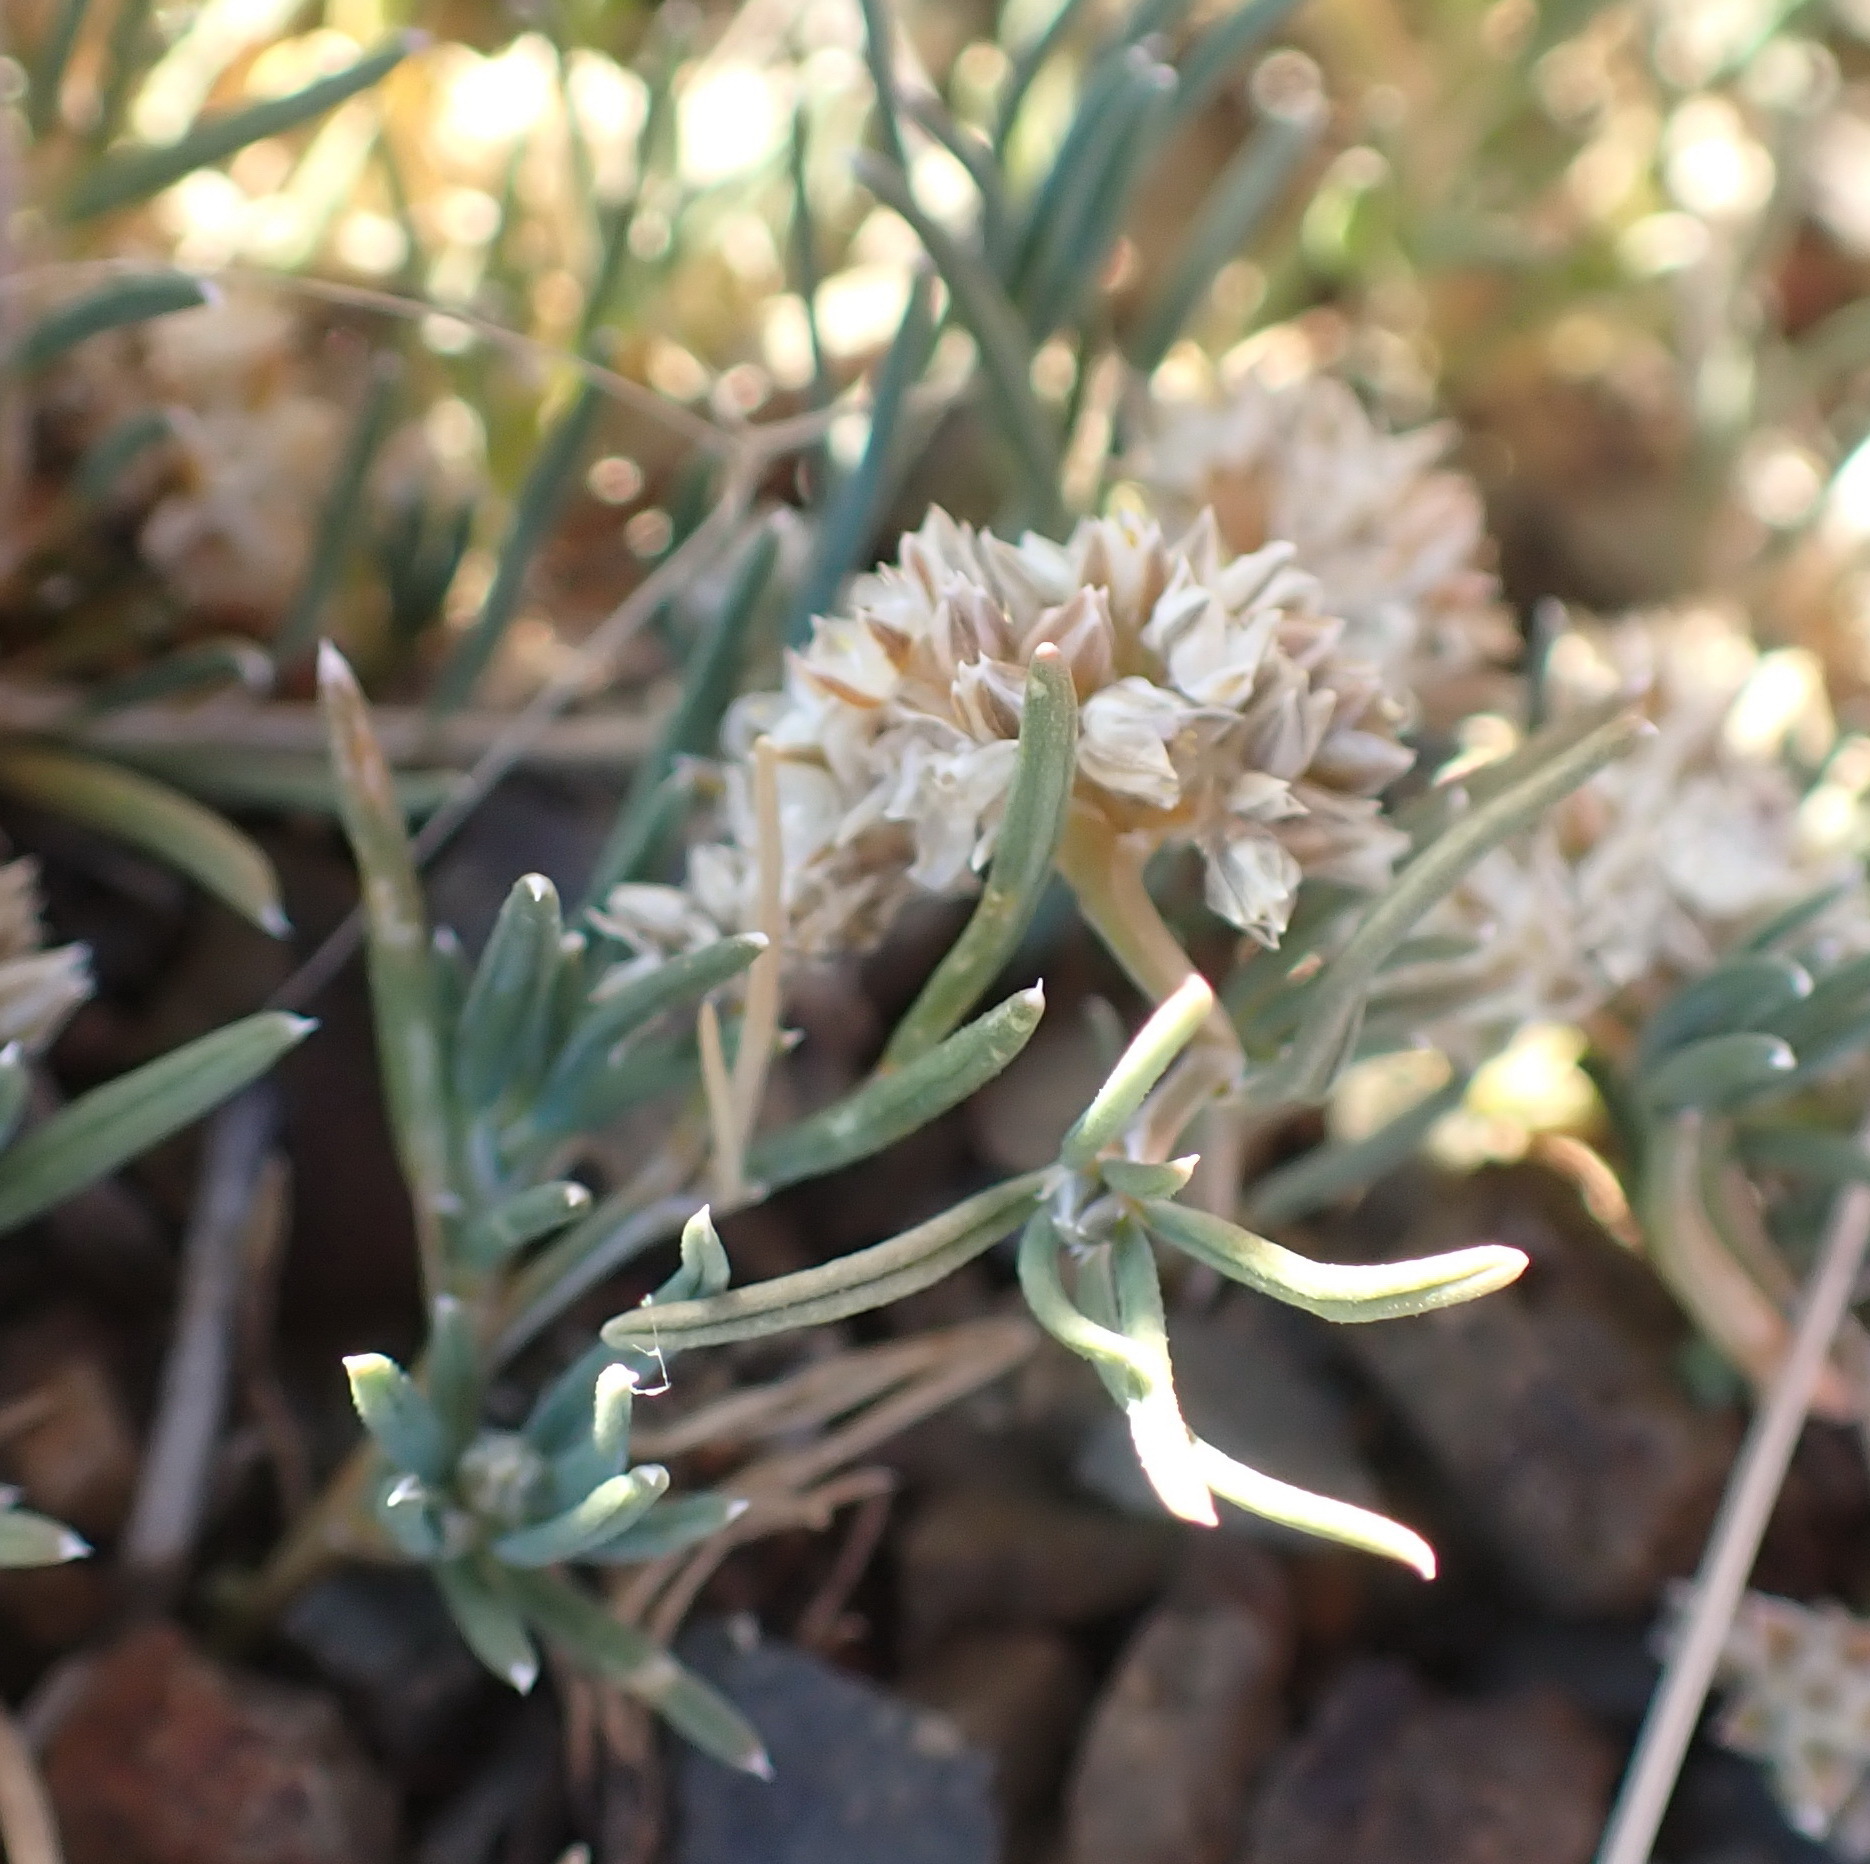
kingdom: Plantae
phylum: Tracheophyta
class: Magnoliopsida
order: Caryophyllales
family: Limeaceae
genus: Limeum
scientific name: Limeum aethiopicum
